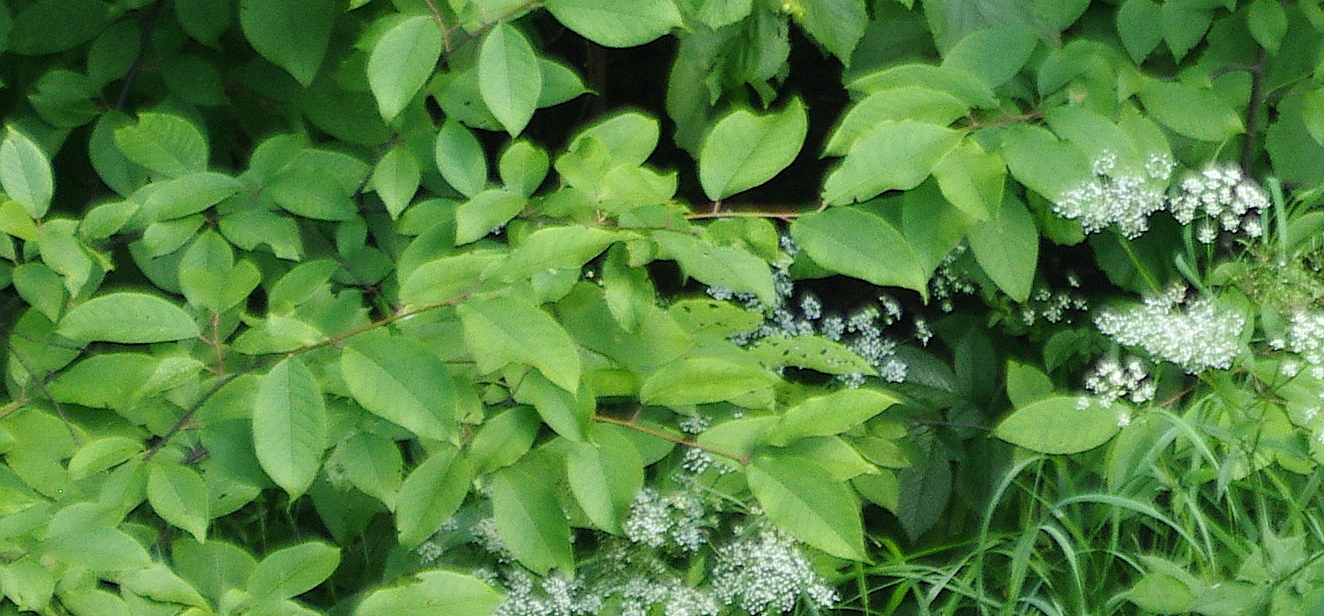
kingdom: Plantae
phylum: Tracheophyta
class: Magnoliopsida
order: Rosales
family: Rosaceae
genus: Prunus
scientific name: Prunus padus
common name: Bird cherry
